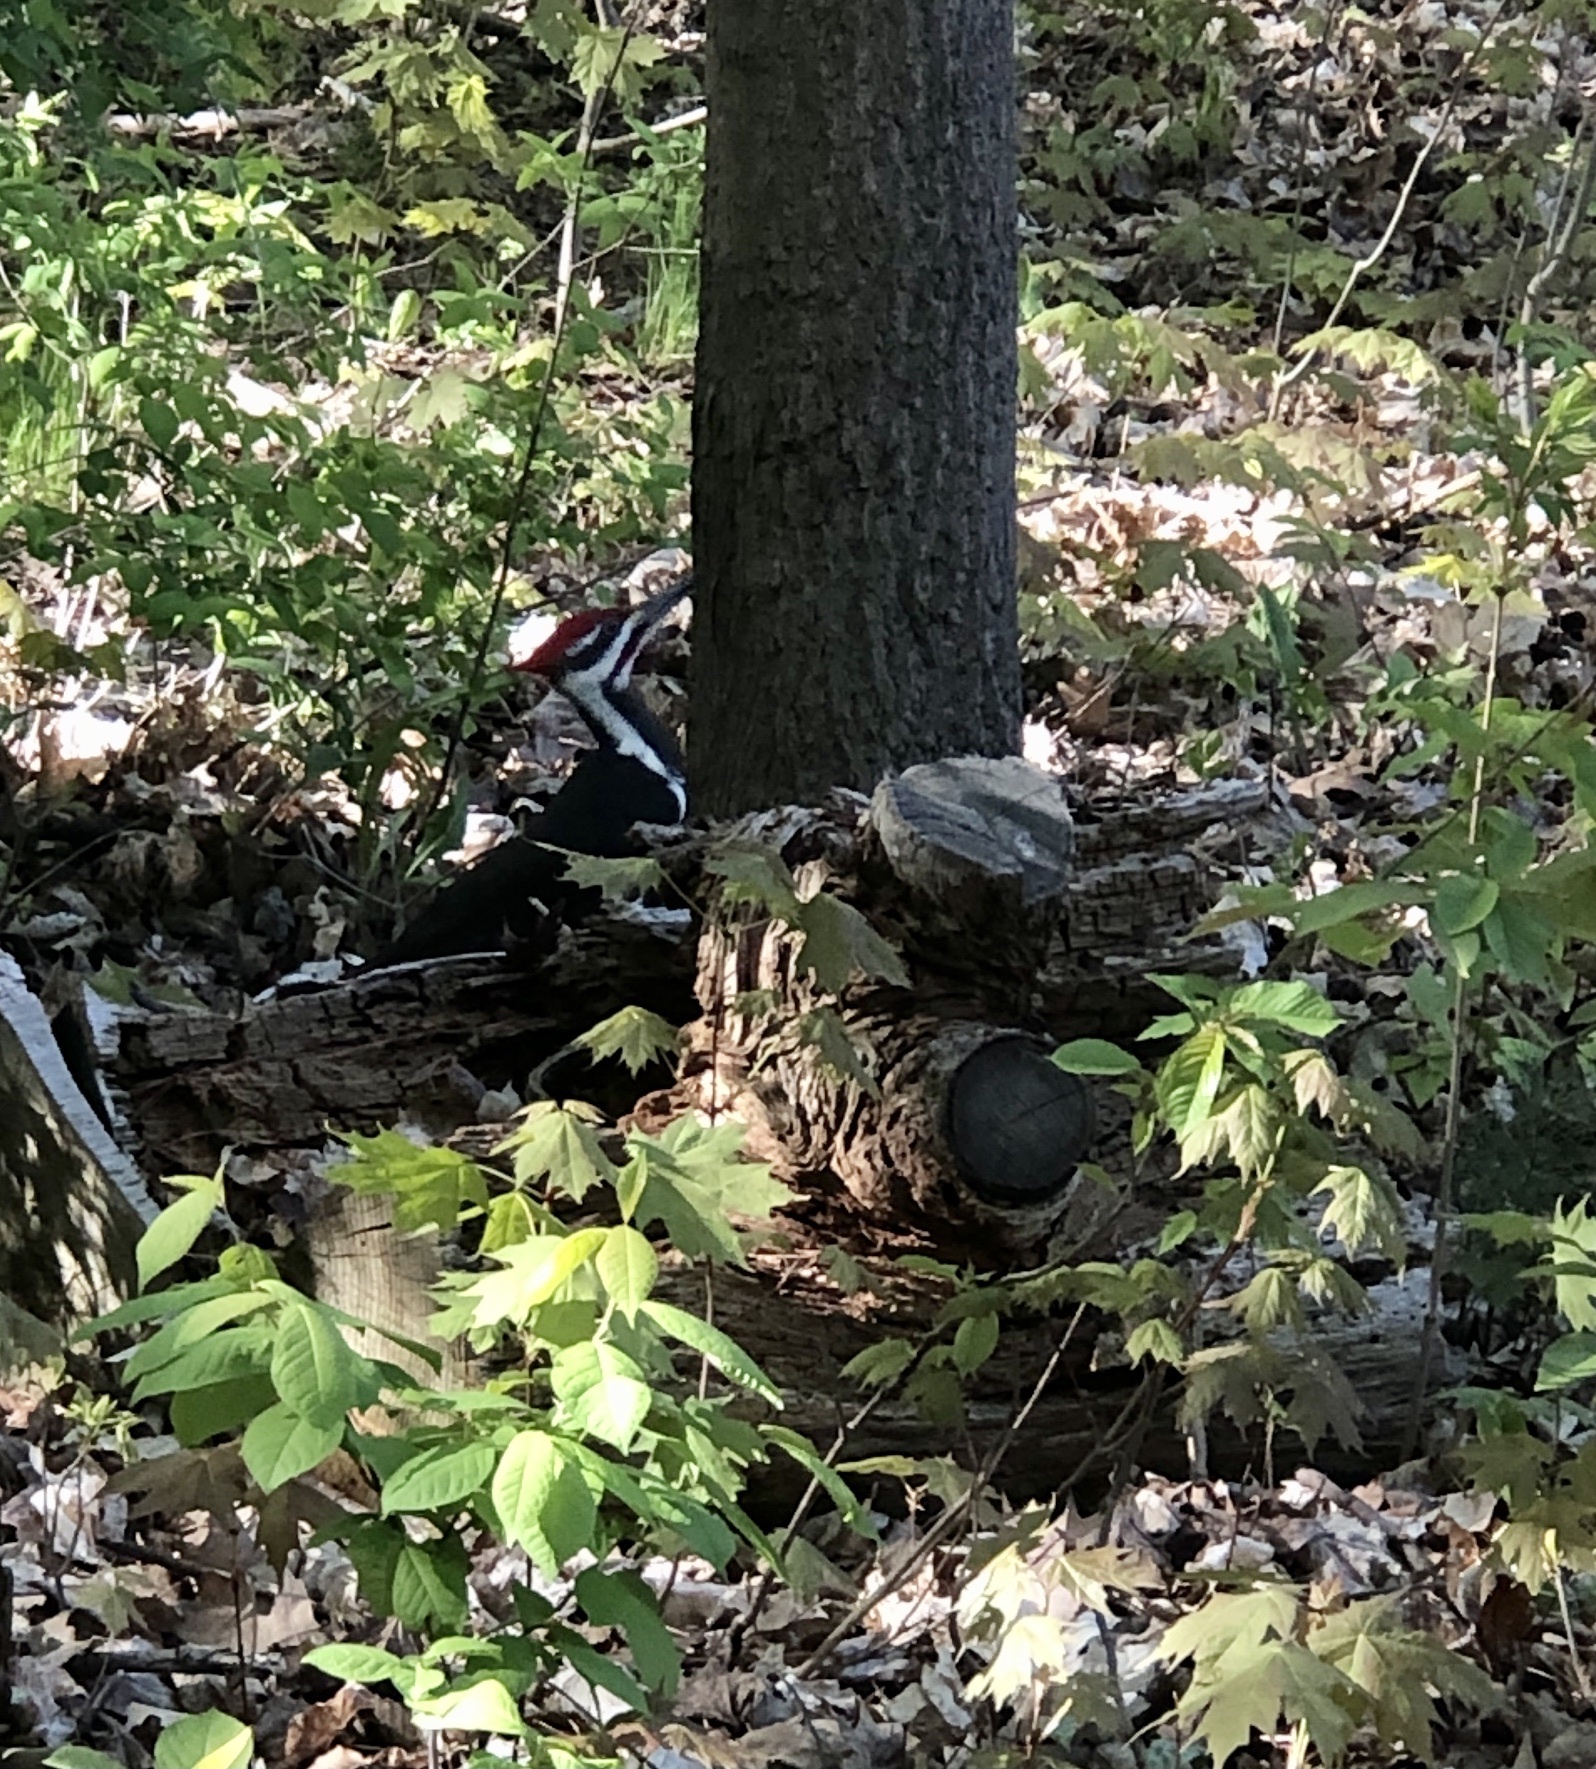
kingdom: Animalia
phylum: Chordata
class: Aves
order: Piciformes
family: Picidae
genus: Dryocopus
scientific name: Dryocopus pileatus
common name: Pileated woodpecker
